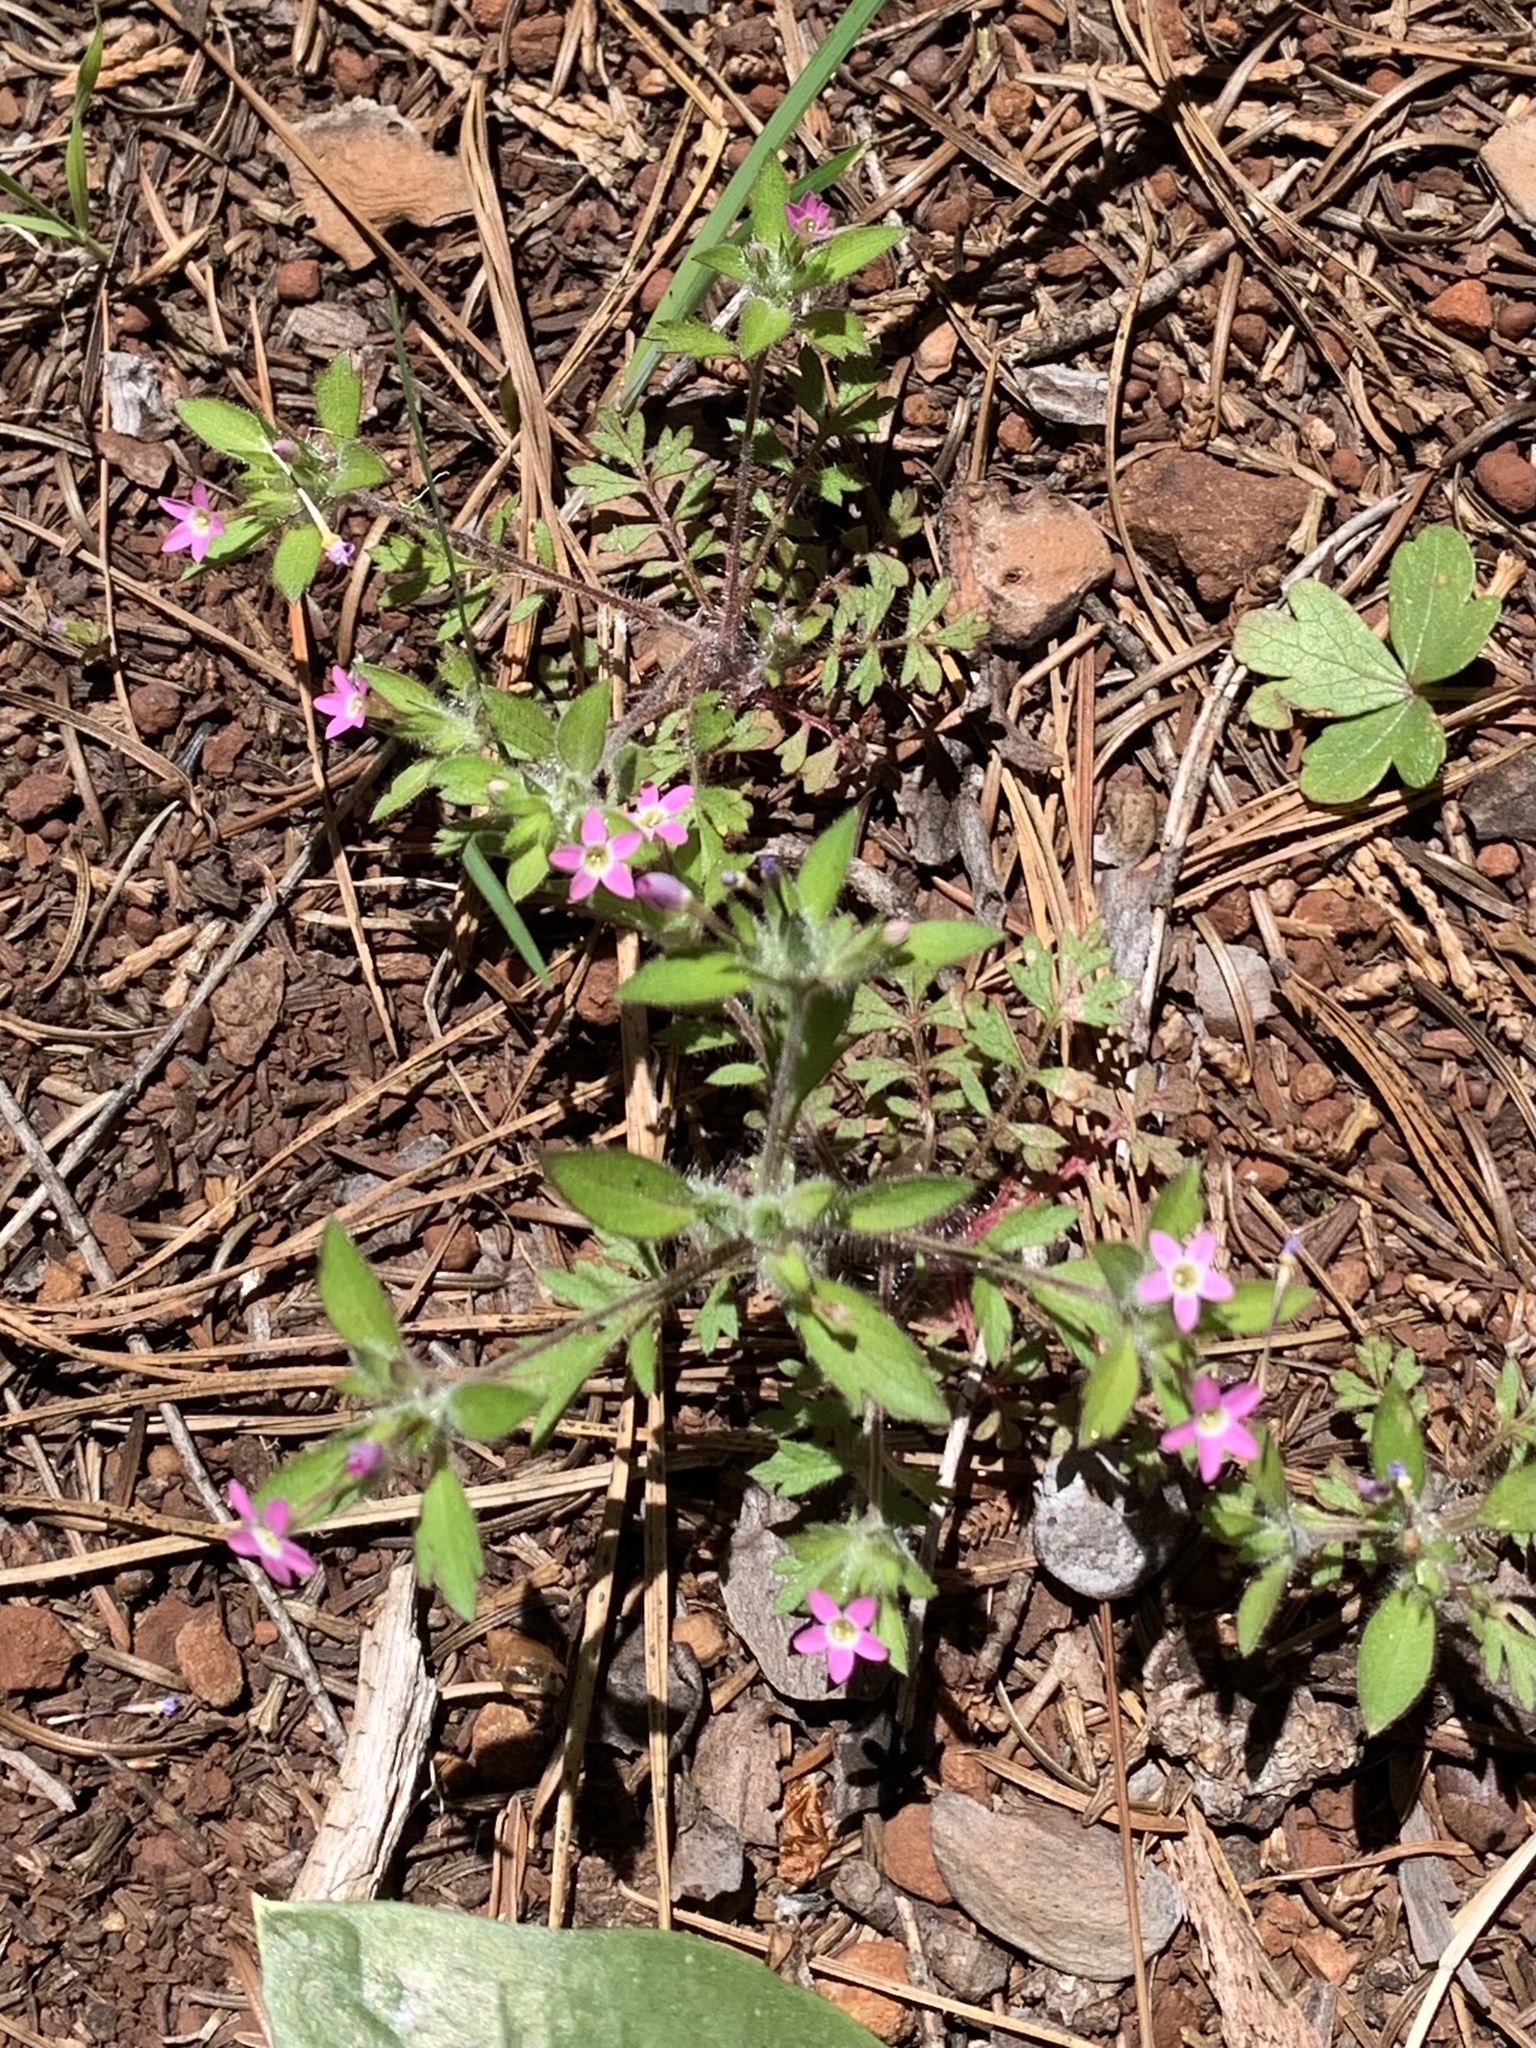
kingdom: Plantae
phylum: Tracheophyta
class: Magnoliopsida
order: Ericales
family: Polemoniaceae
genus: Collomia
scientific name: Collomia heterophylla
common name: Variable-leaved collomia
